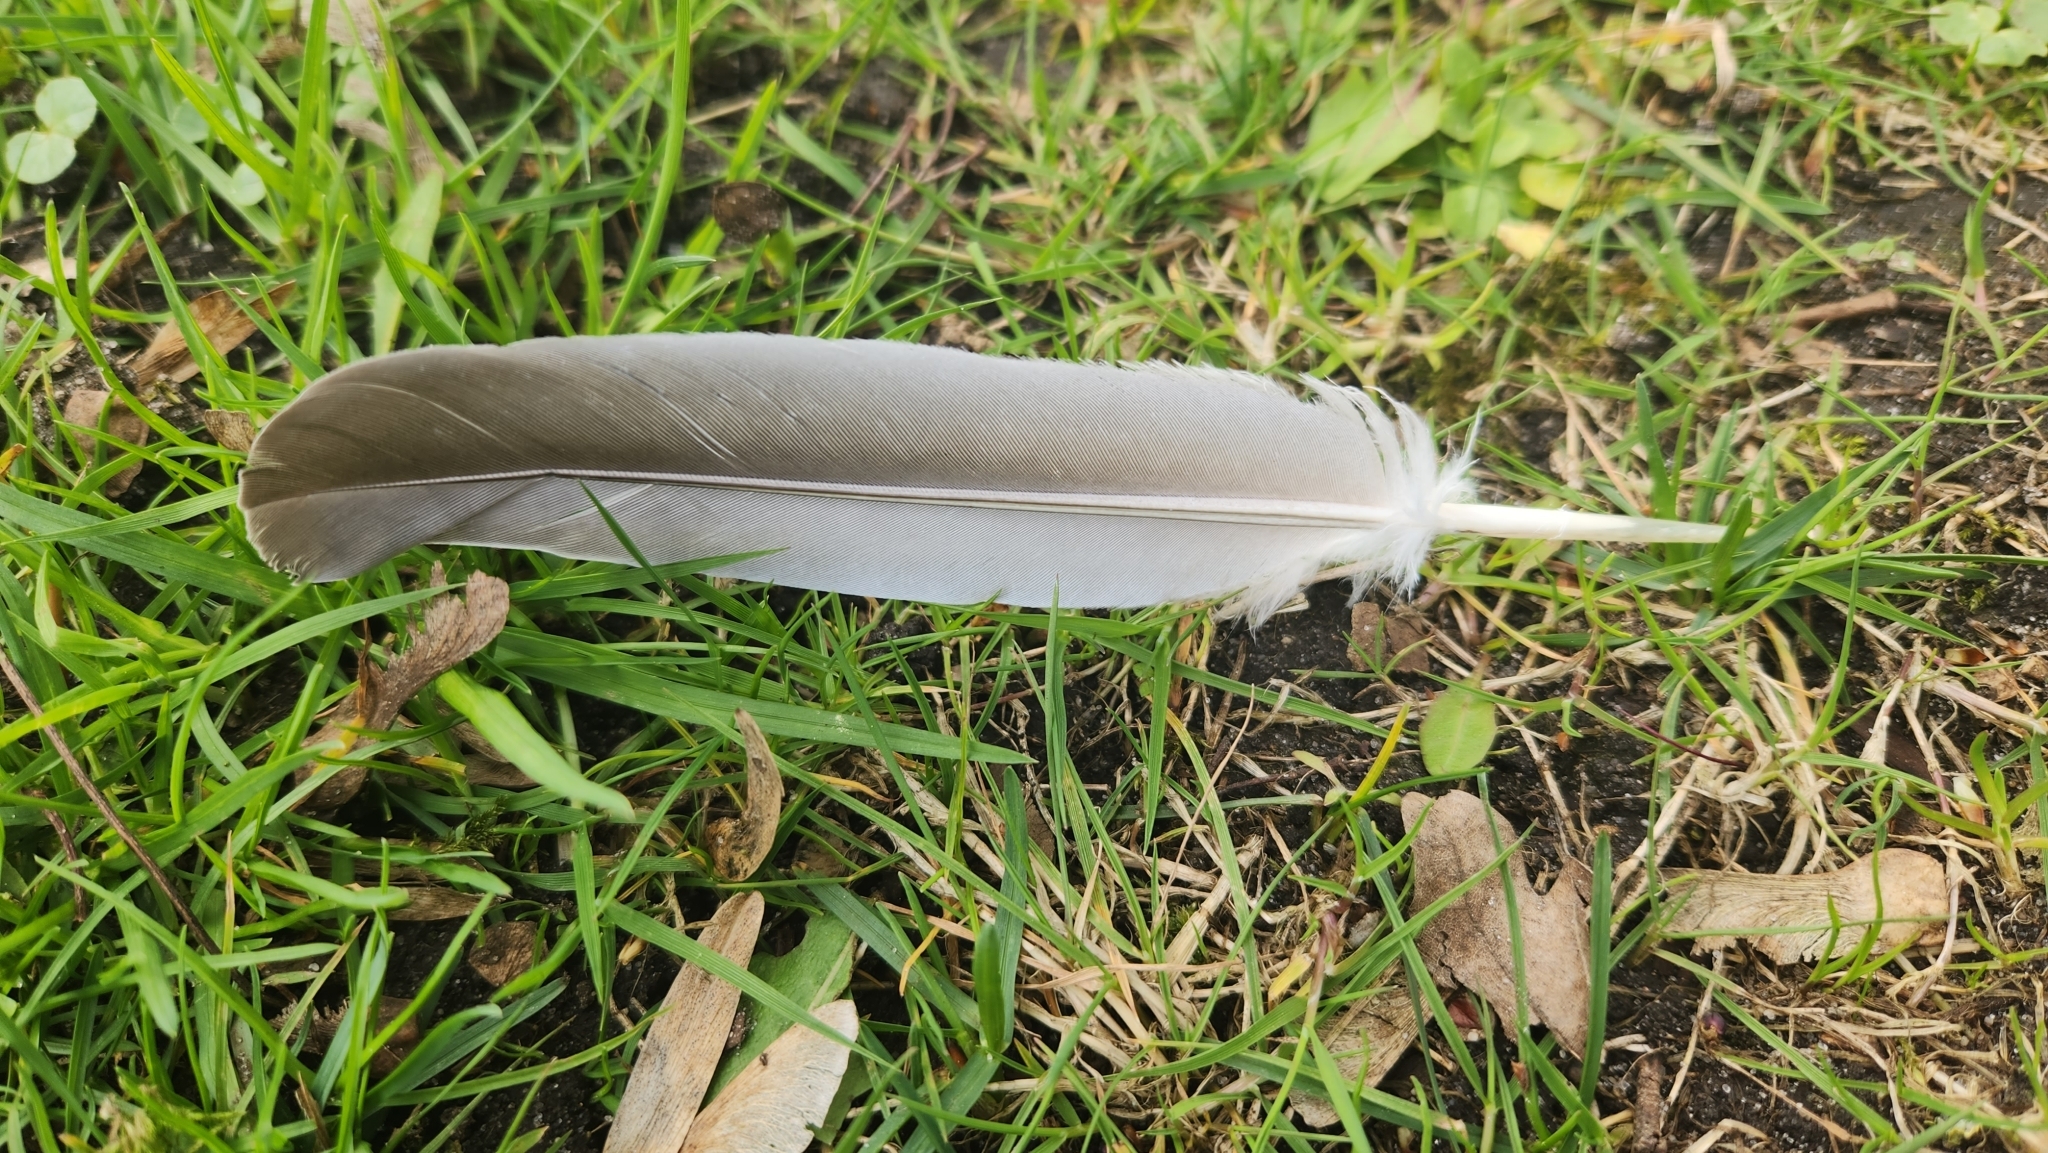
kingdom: Animalia
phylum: Chordata
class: Aves
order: Columbiformes
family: Columbidae
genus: Columba
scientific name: Columba palumbus
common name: Common wood pigeon
